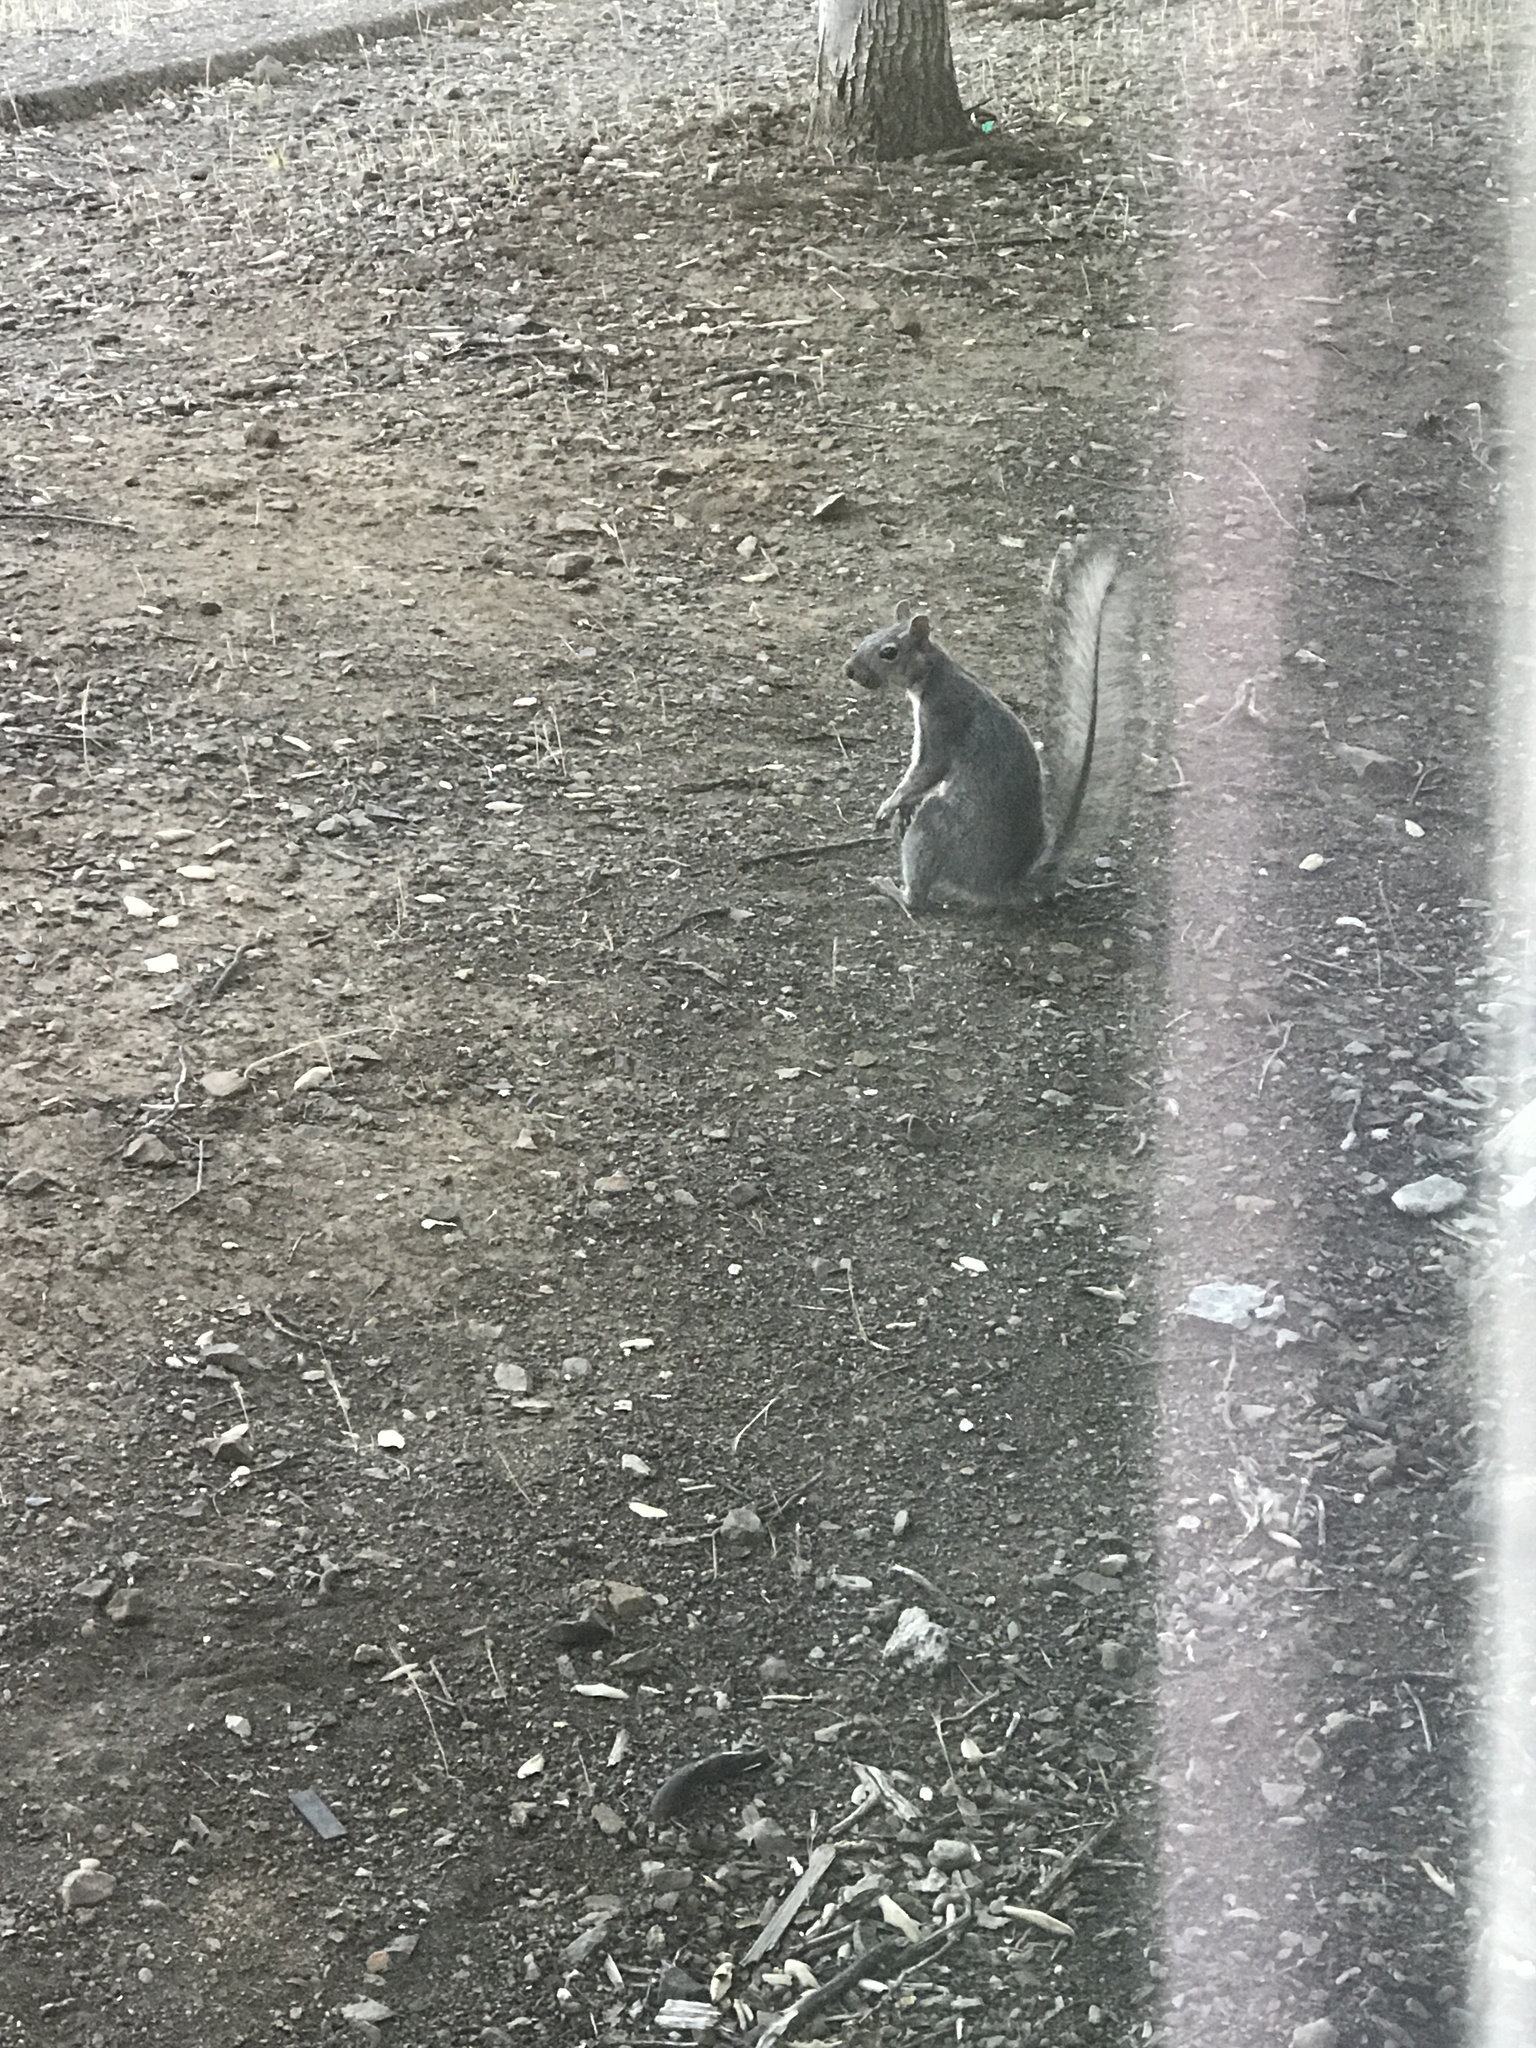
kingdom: Animalia
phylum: Chordata
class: Mammalia
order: Rodentia
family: Sciuridae
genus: Sciurus
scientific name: Sciurus griseus
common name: Western gray squirrel
